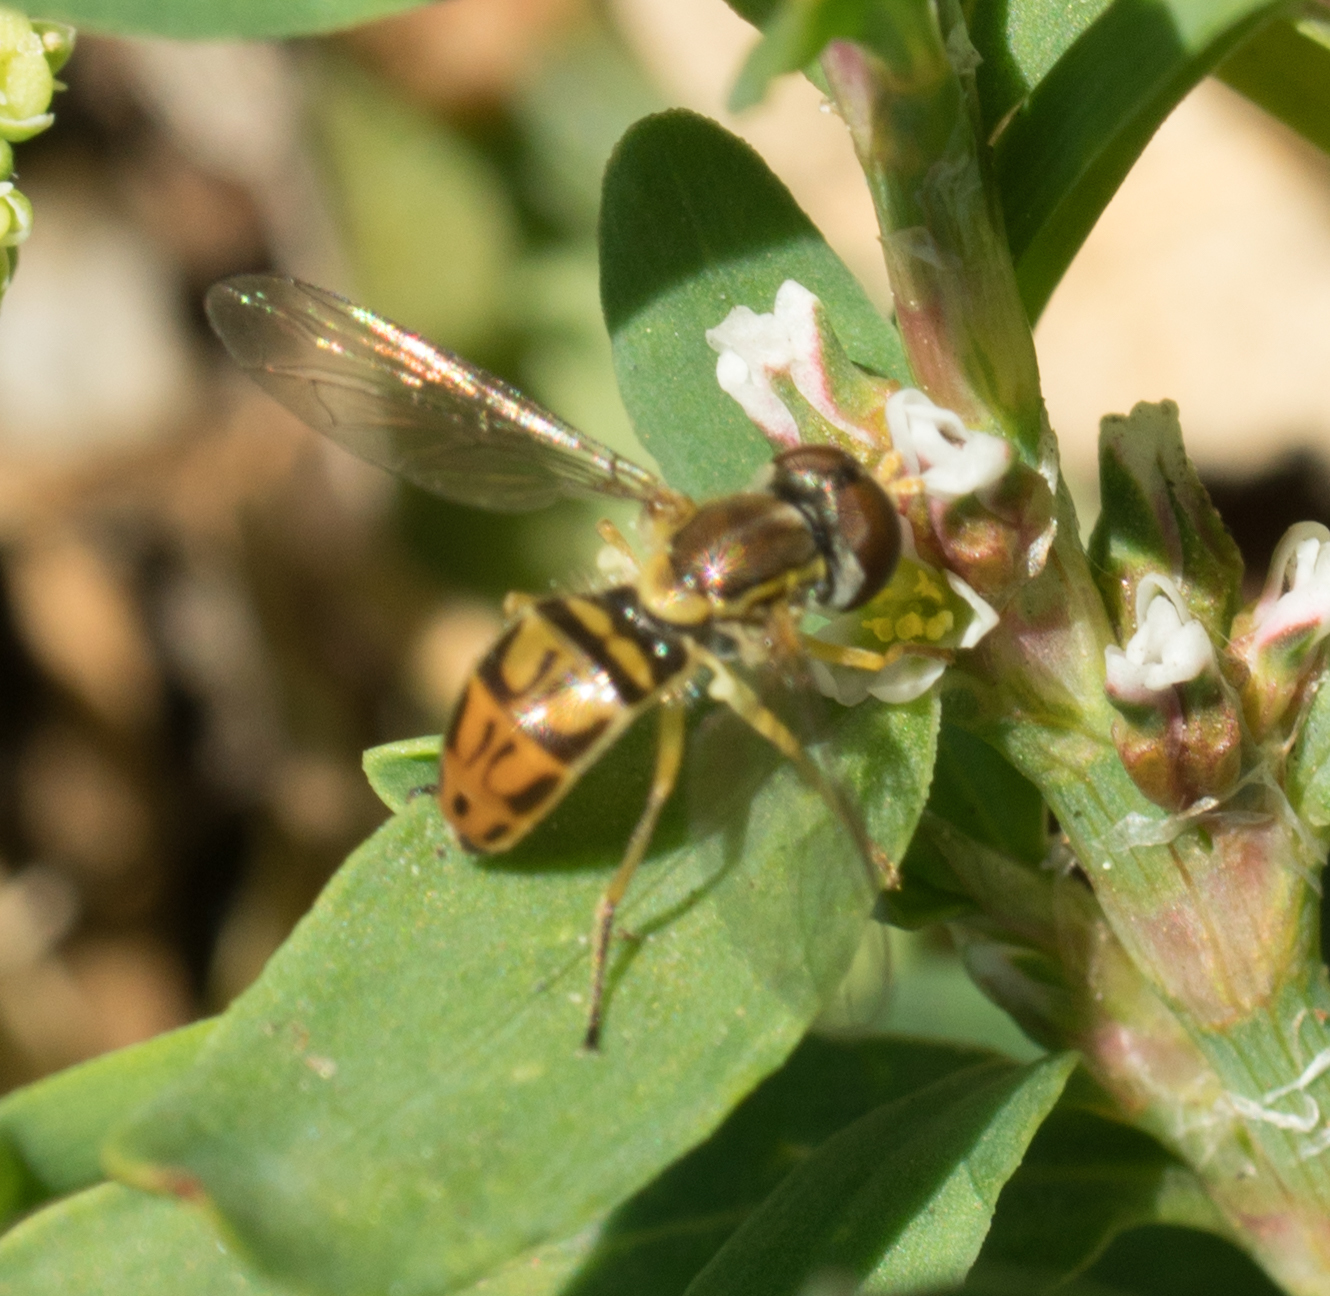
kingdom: Animalia
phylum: Arthropoda
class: Insecta
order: Diptera
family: Syrphidae
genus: Toxomerus
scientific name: Toxomerus marginatus
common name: Syrphid fly
